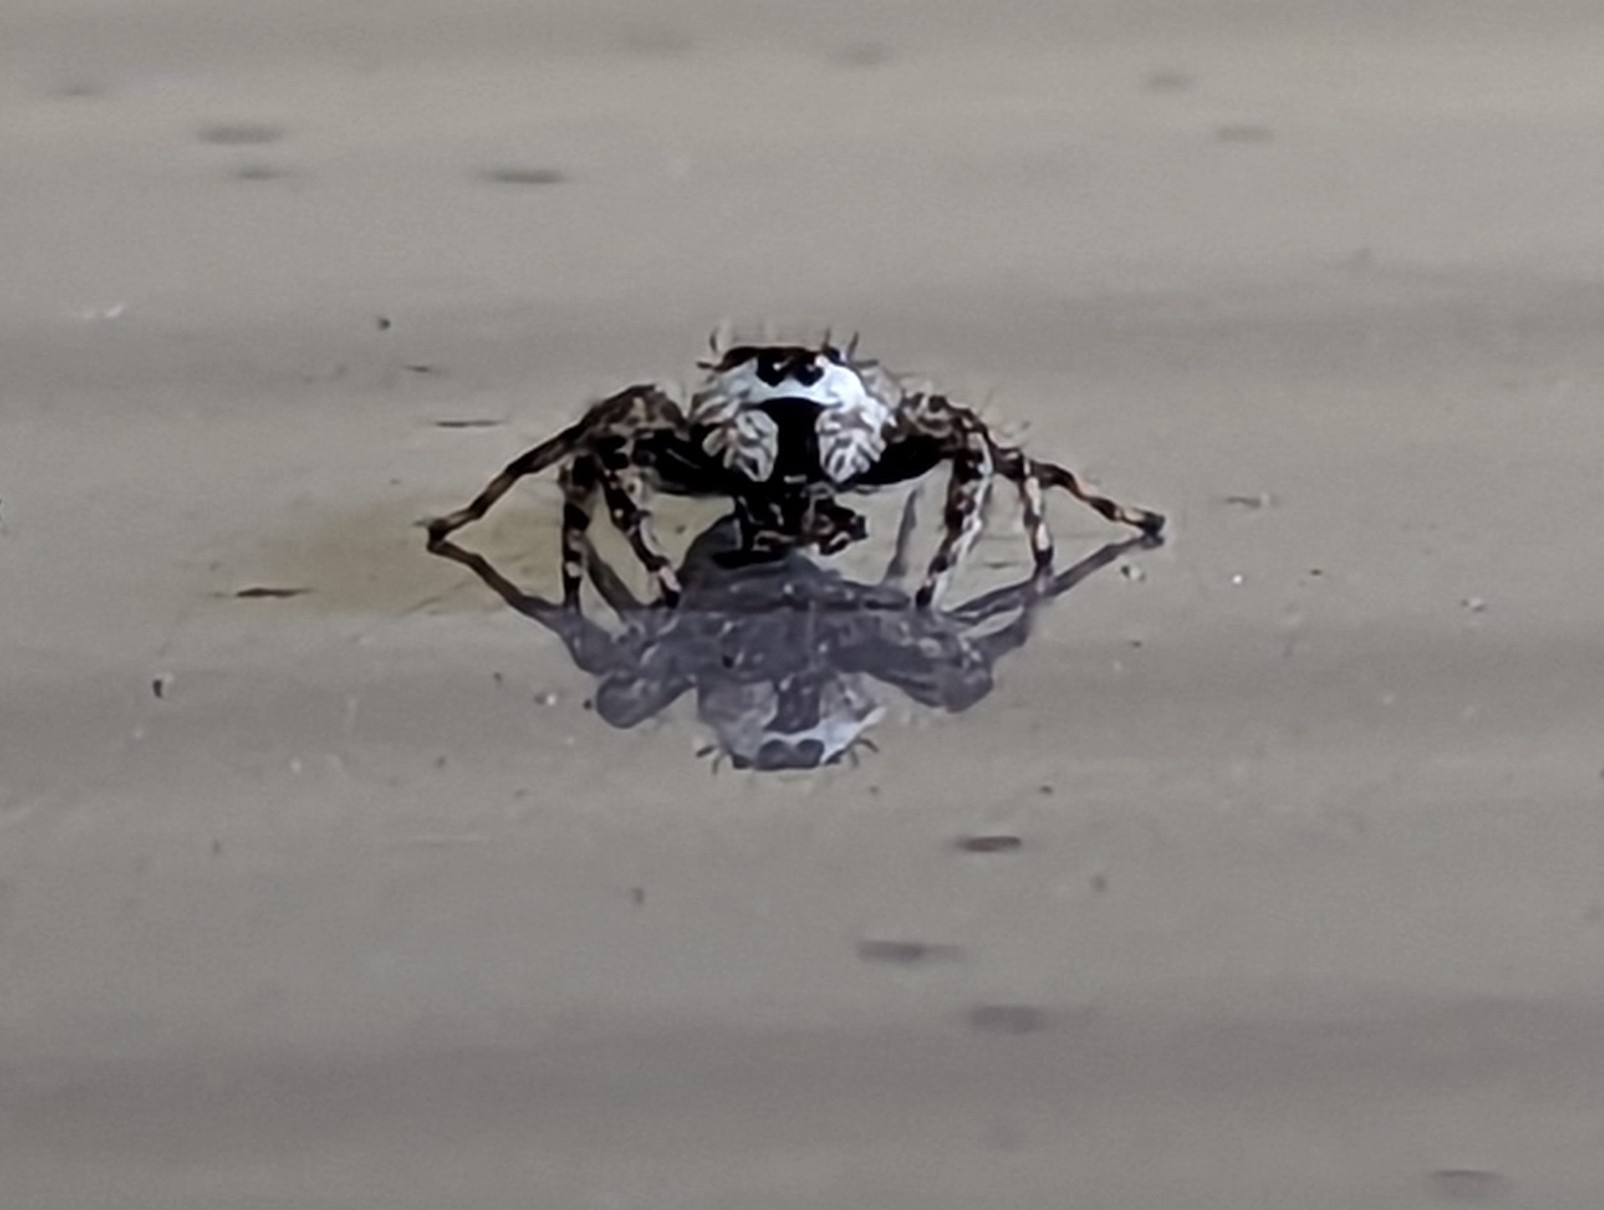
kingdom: Animalia
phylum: Arthropoda
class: Arachnida
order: Araneae
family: Salticidae
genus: Platycryptus
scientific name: Platycryptus undatus
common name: Tan jumping spider
